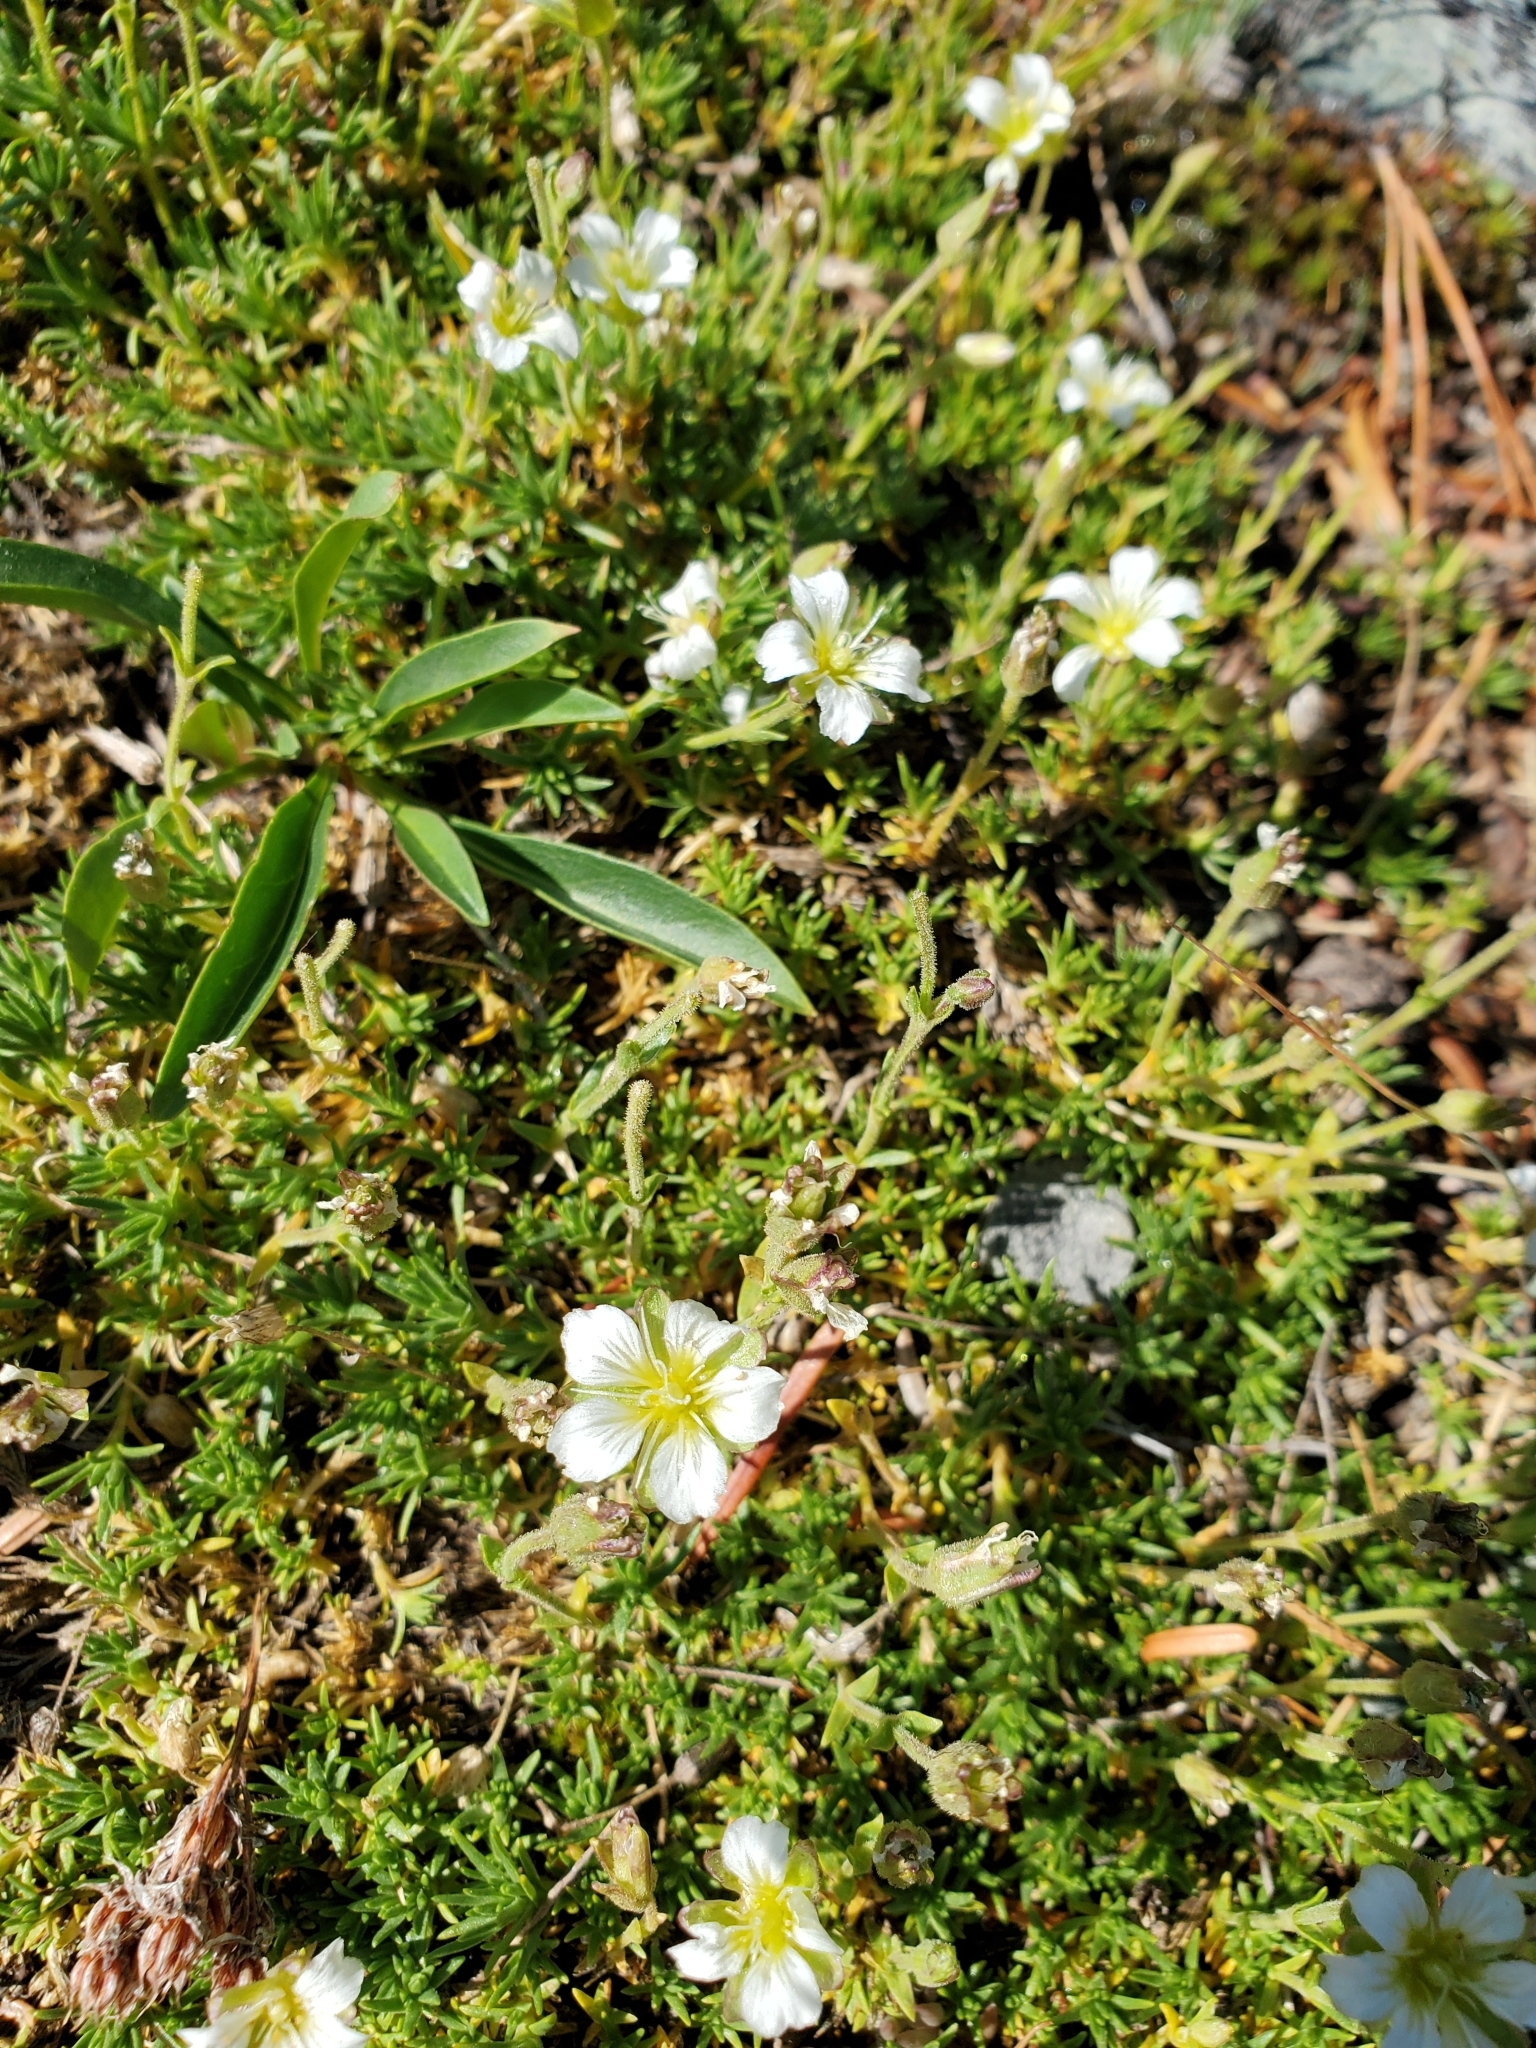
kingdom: Plantae
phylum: Tracheophyta
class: Magnoliopsida
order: Caryophyllales
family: Caryophyllaceae
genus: Cherleria
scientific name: Cherleria obtusiloba
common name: Alpine stitchwort
